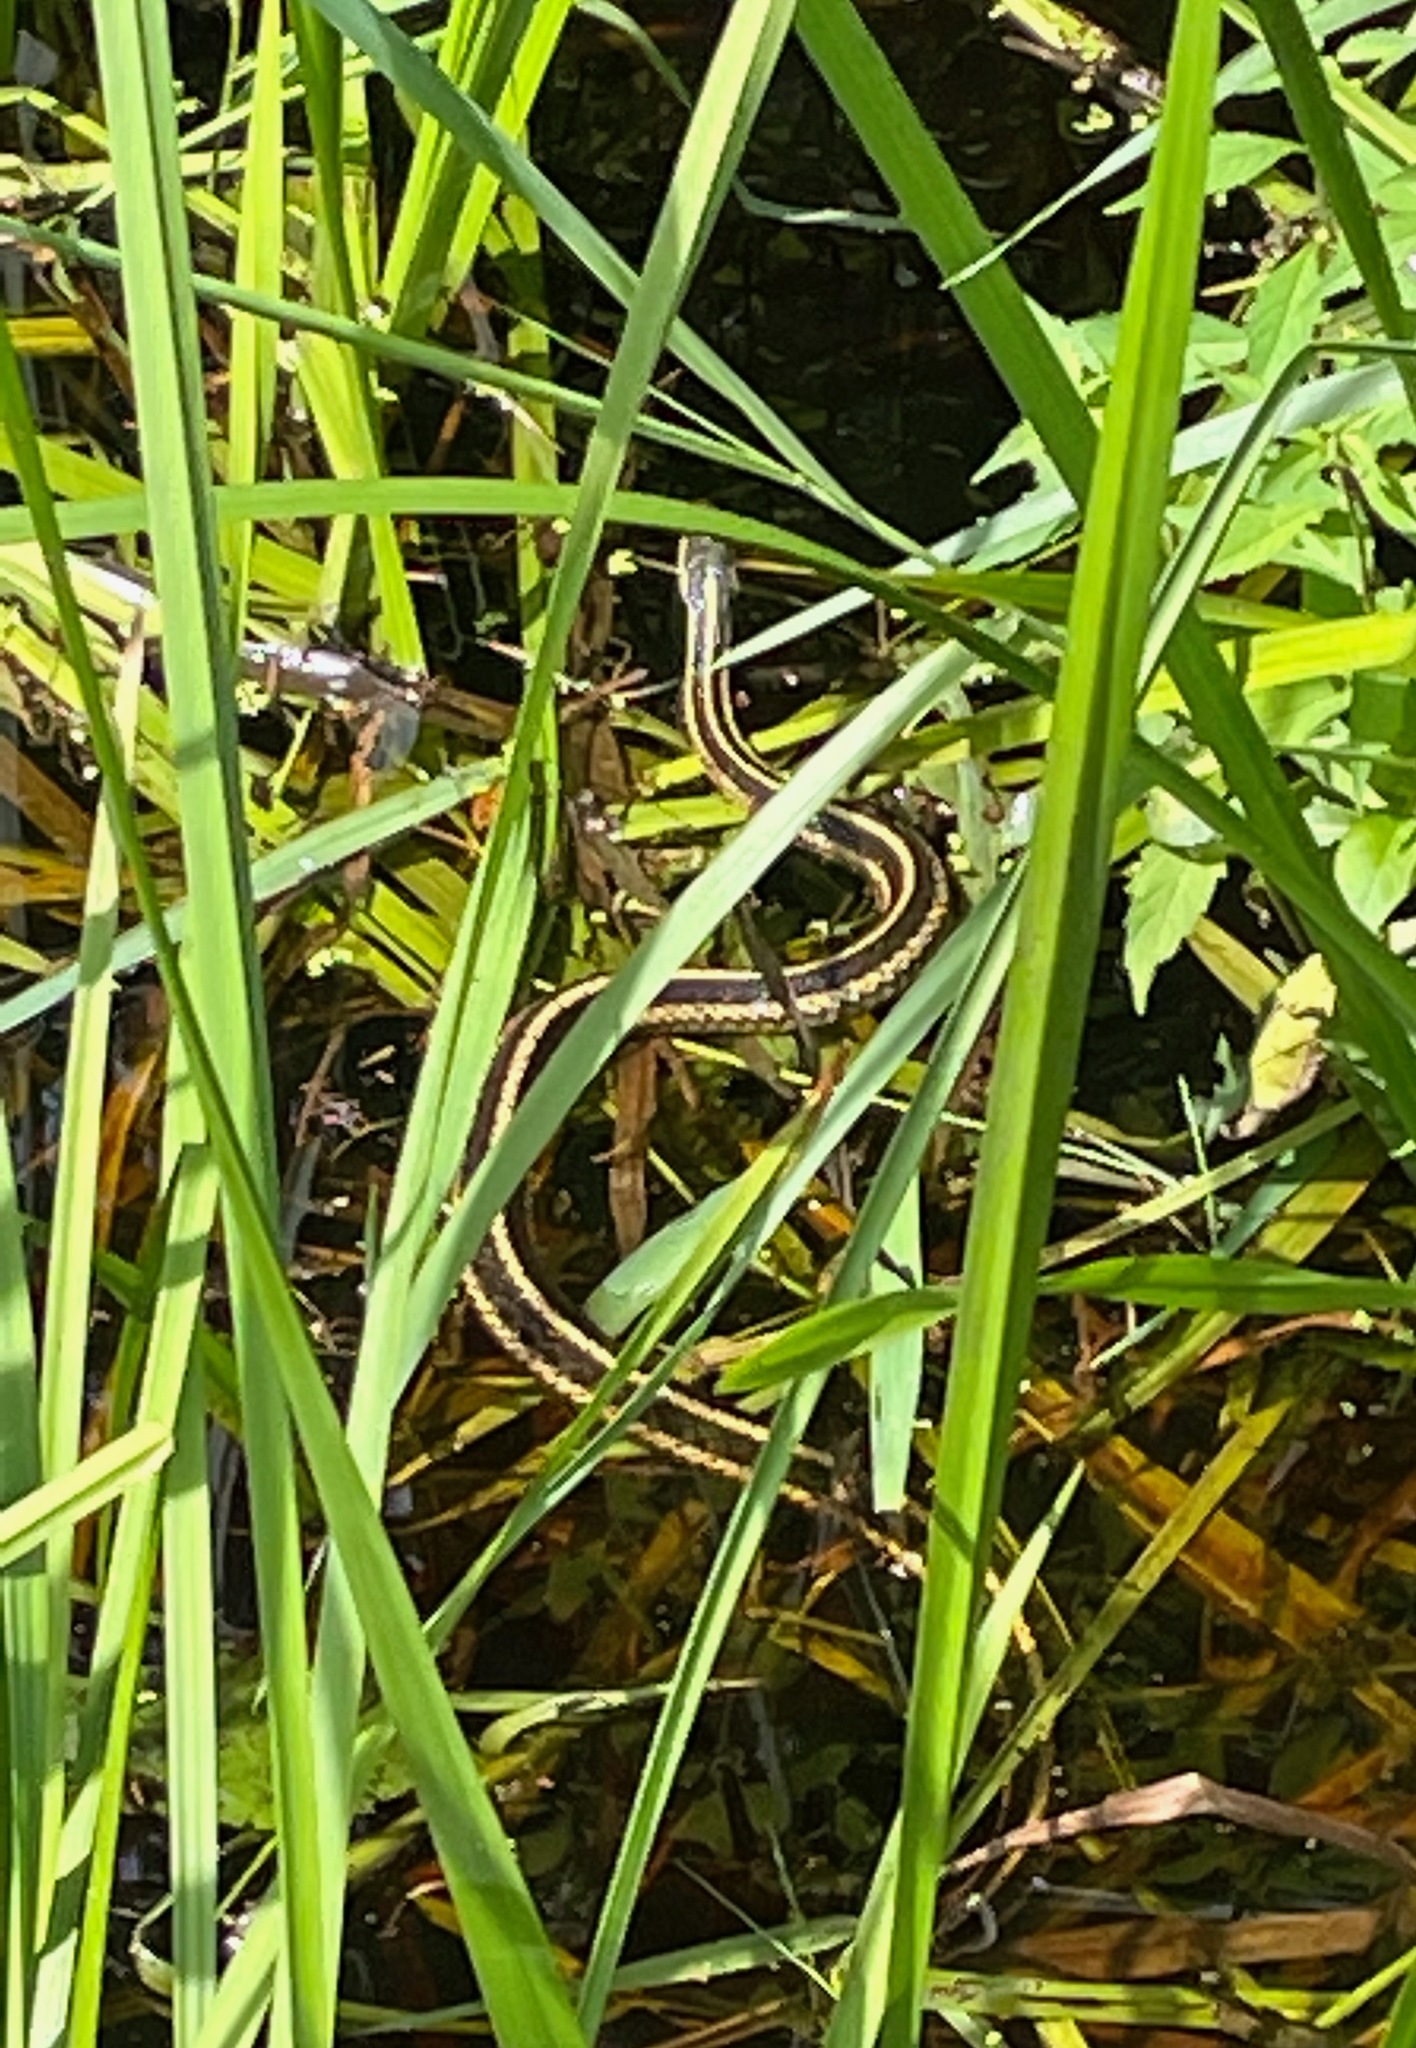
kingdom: Animalia
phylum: Chordata
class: Squamata
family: Colubridae
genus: Thamnophis
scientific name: Thamnophis sirtalis
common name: Common garter snake
